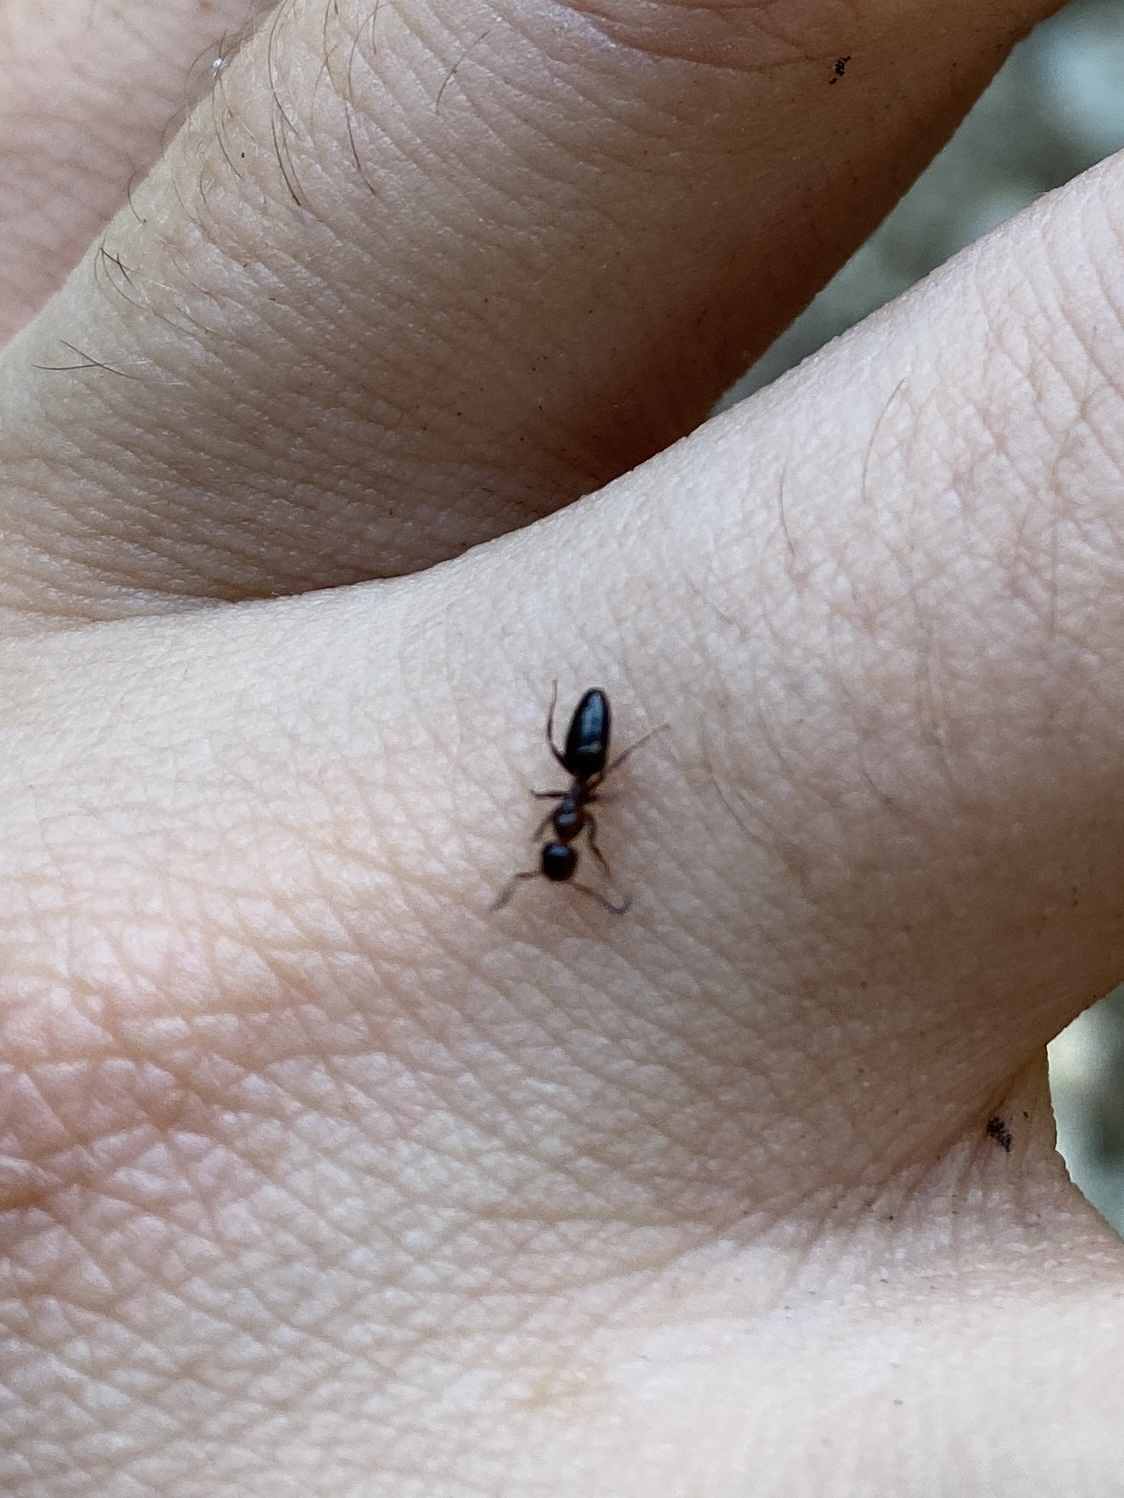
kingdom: Animalia
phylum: Arthropoda
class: Insecta
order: Hymenoptera
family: Formicidae
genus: Camponotus
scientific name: Camponotus truncatus
